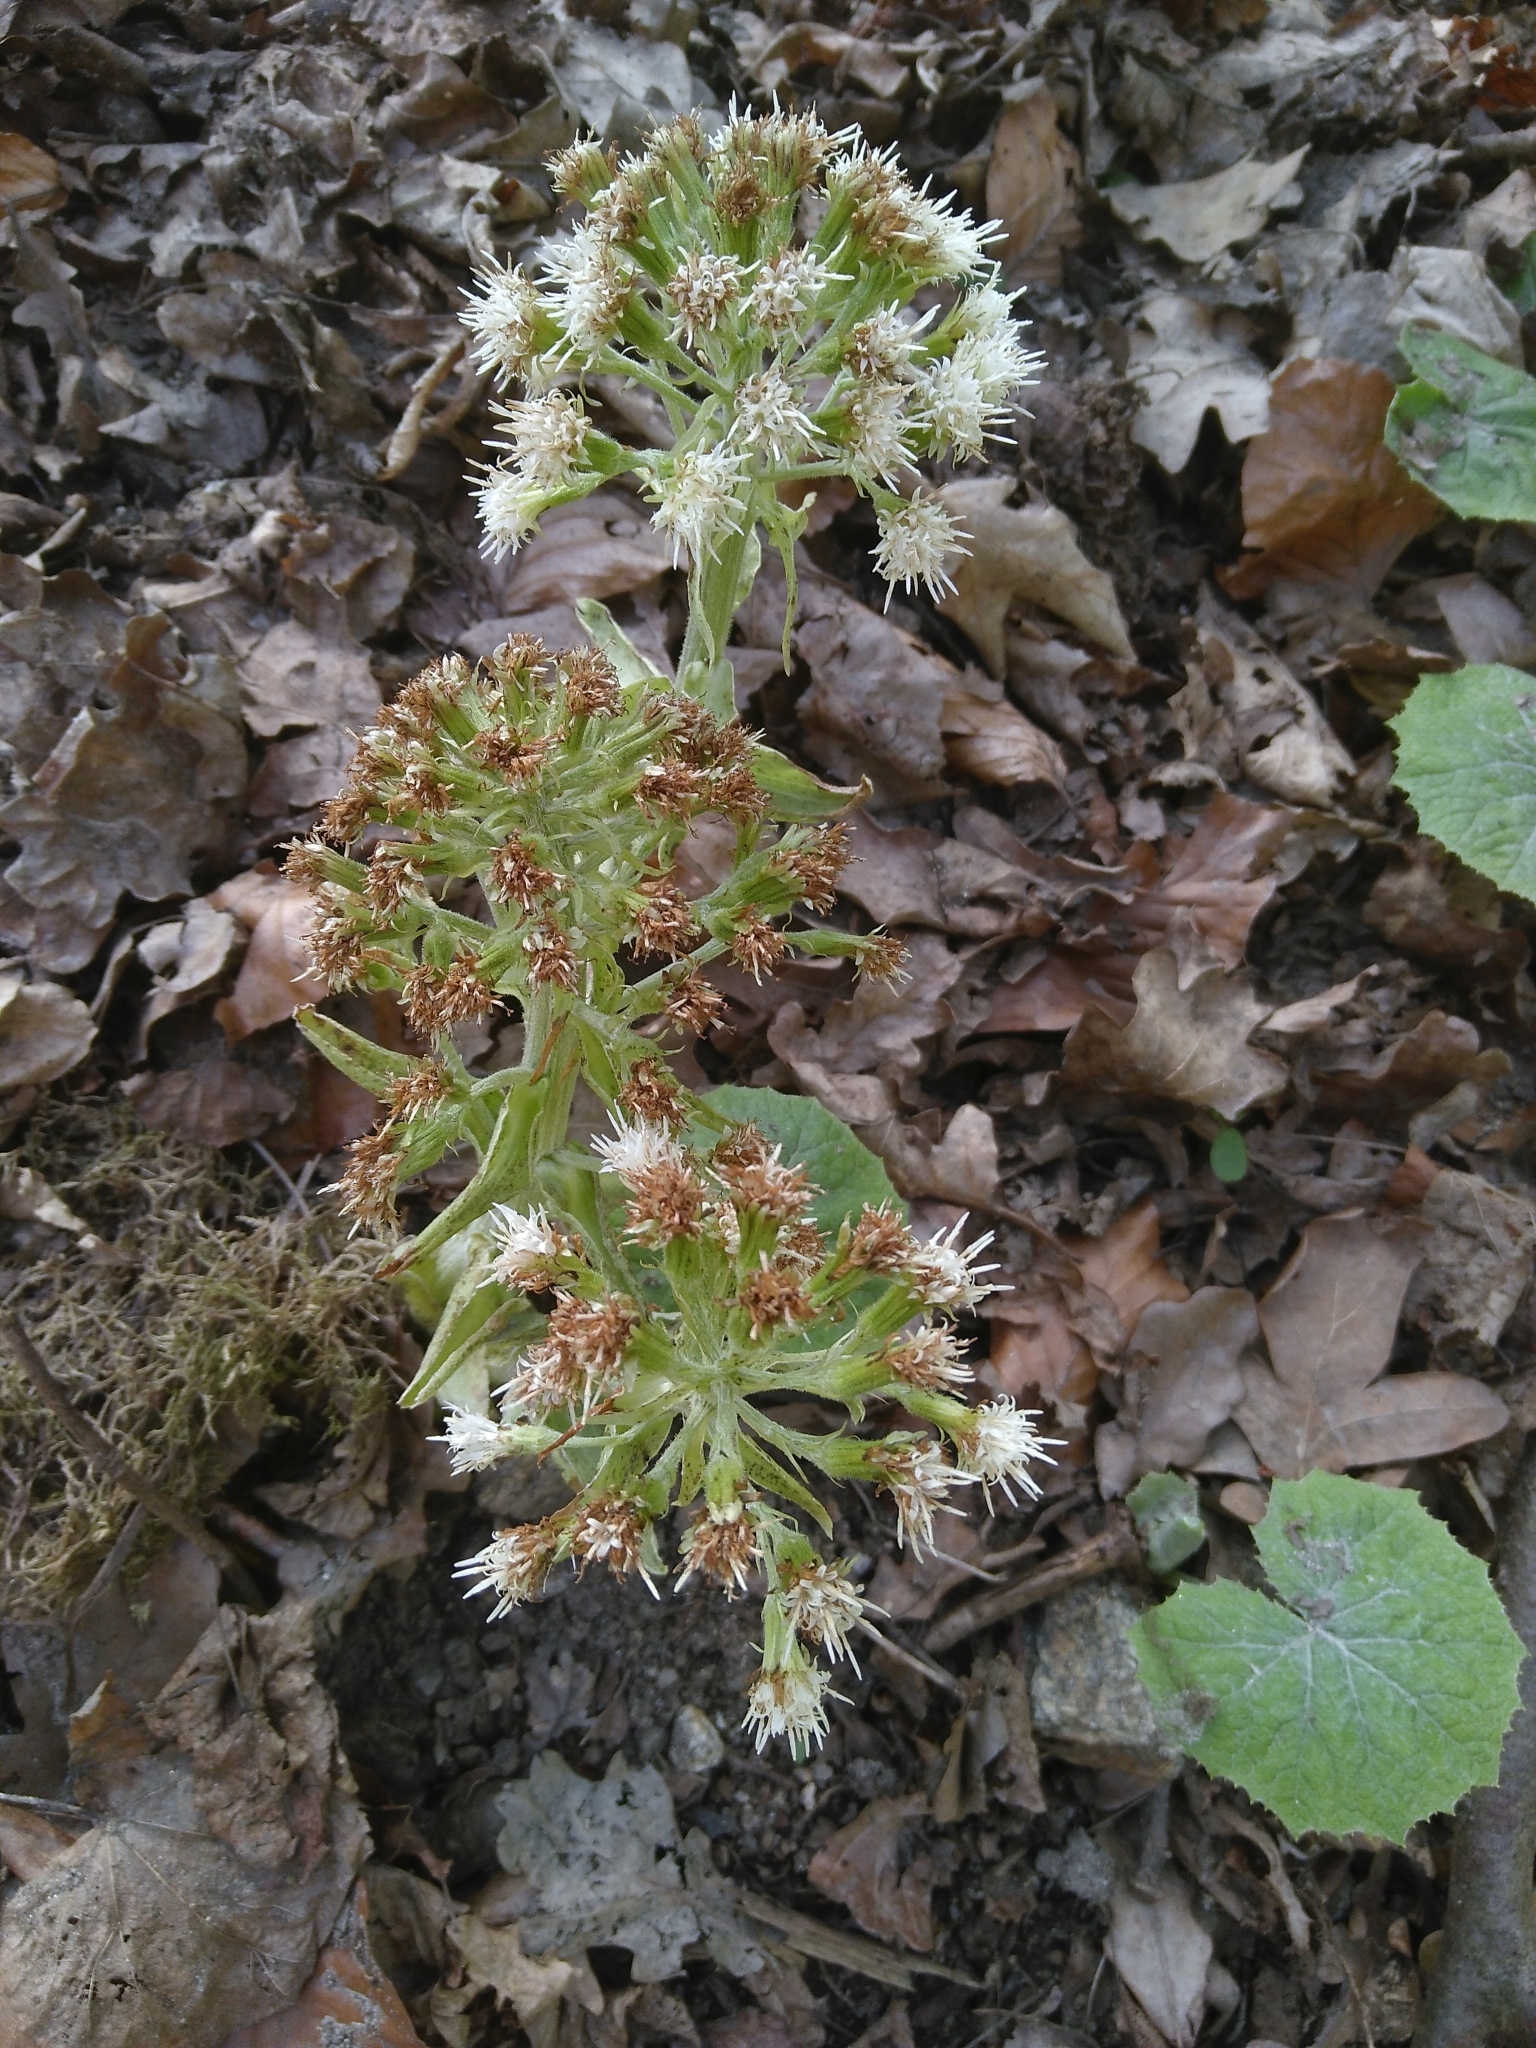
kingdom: Plantae
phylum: Tracheophyta
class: Magnoliopsida
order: Asterales
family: Asteraceae
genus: Petasites
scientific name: Petasites albus
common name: White butterbur
